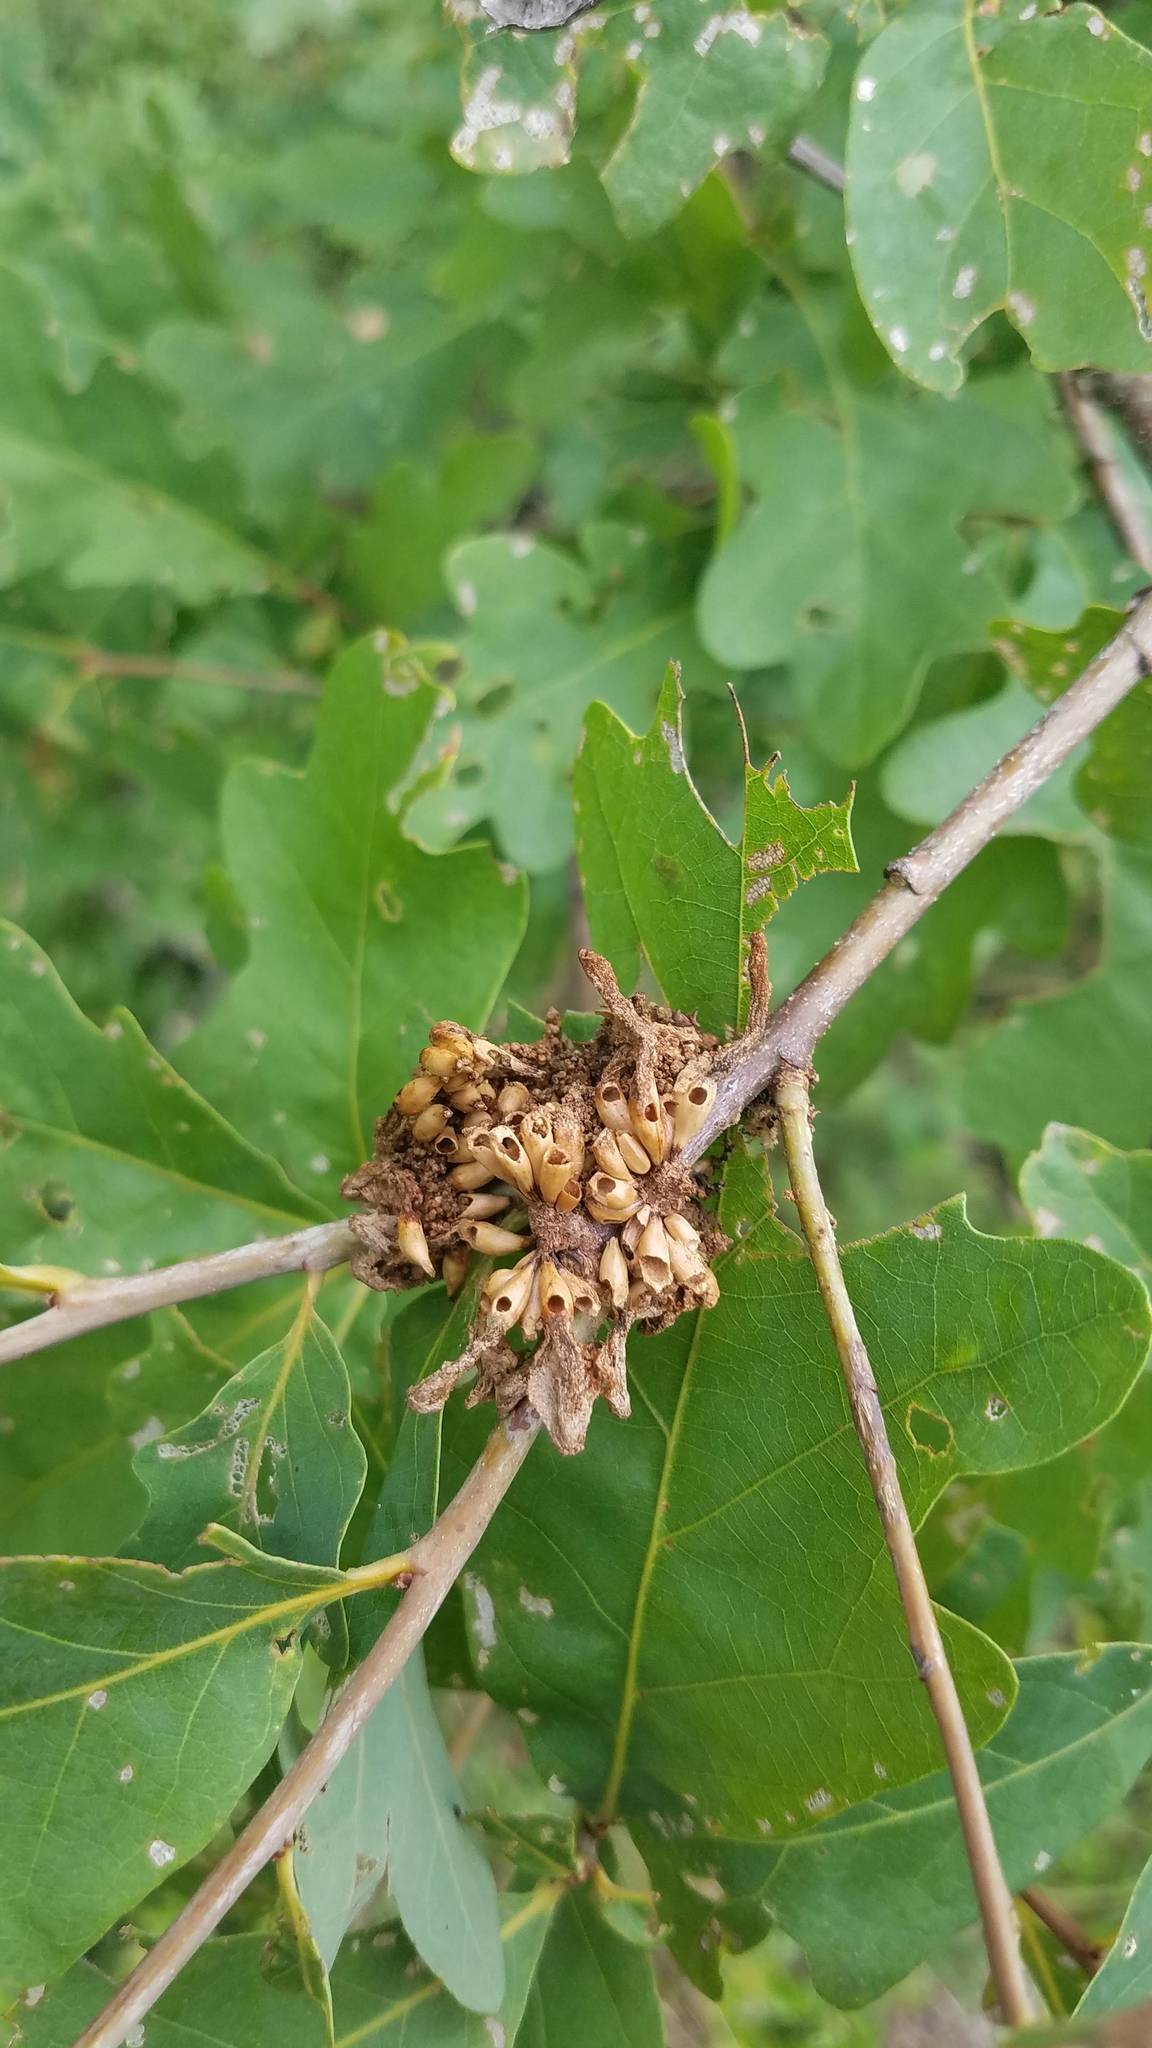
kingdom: Animalia
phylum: Arthropoda
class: Insecta
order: Hymenoptera
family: Cynipidae
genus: Callirhytis
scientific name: Callirhytis
